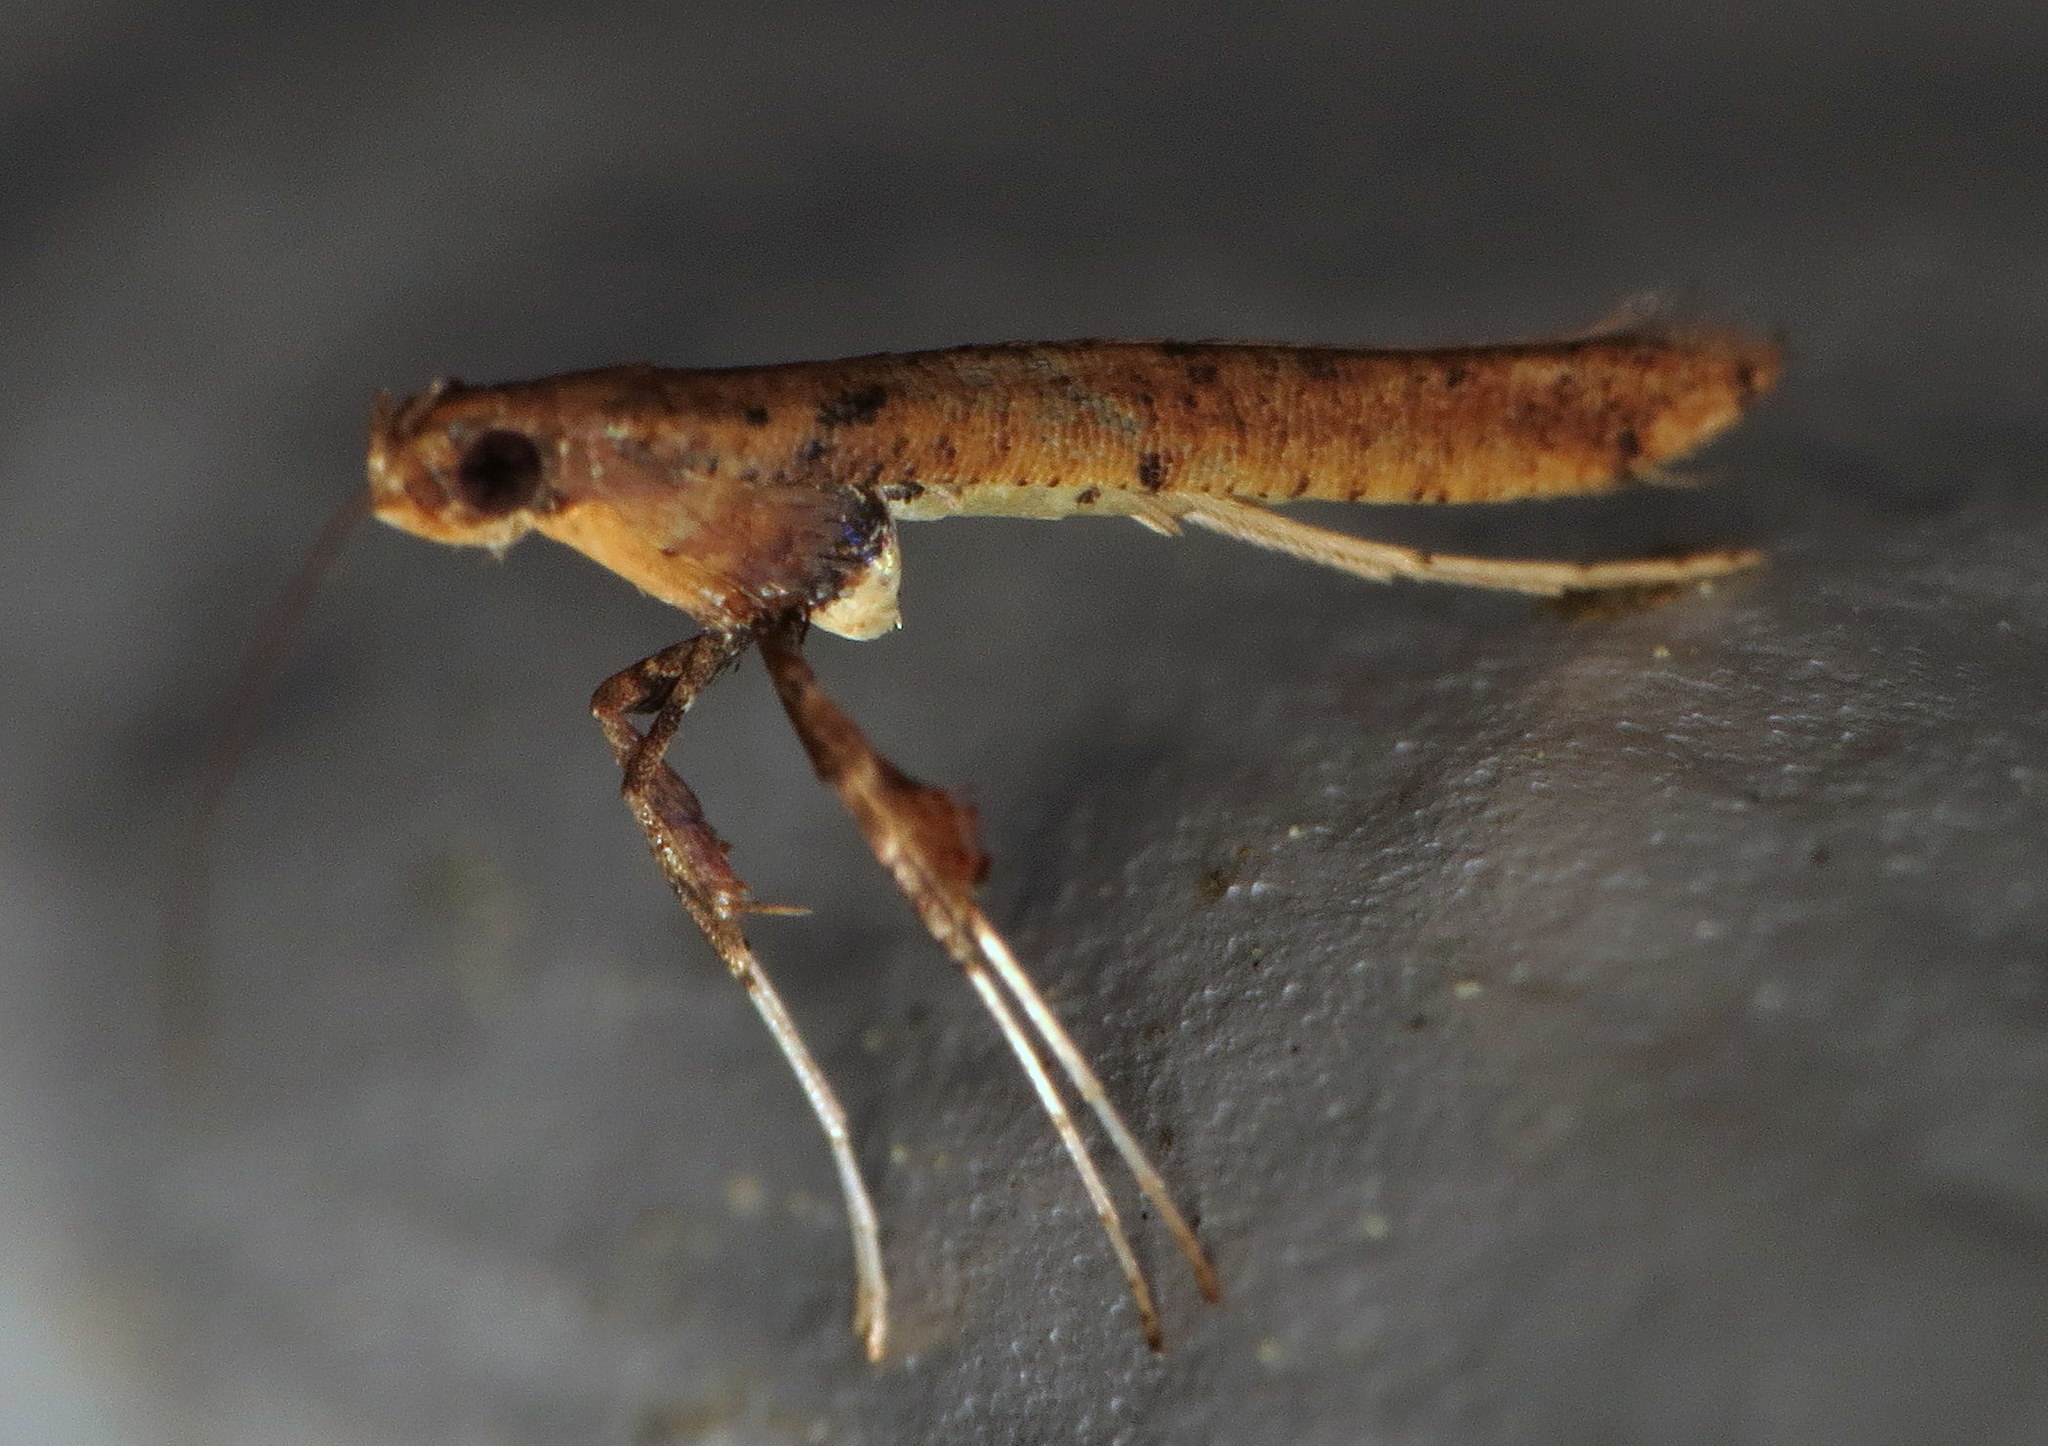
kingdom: Animalia
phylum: Arthropoda
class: Insecta
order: Lepidoptera
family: Gracillariidae
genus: Caloptilia
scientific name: Caloptilia sassafrasella
